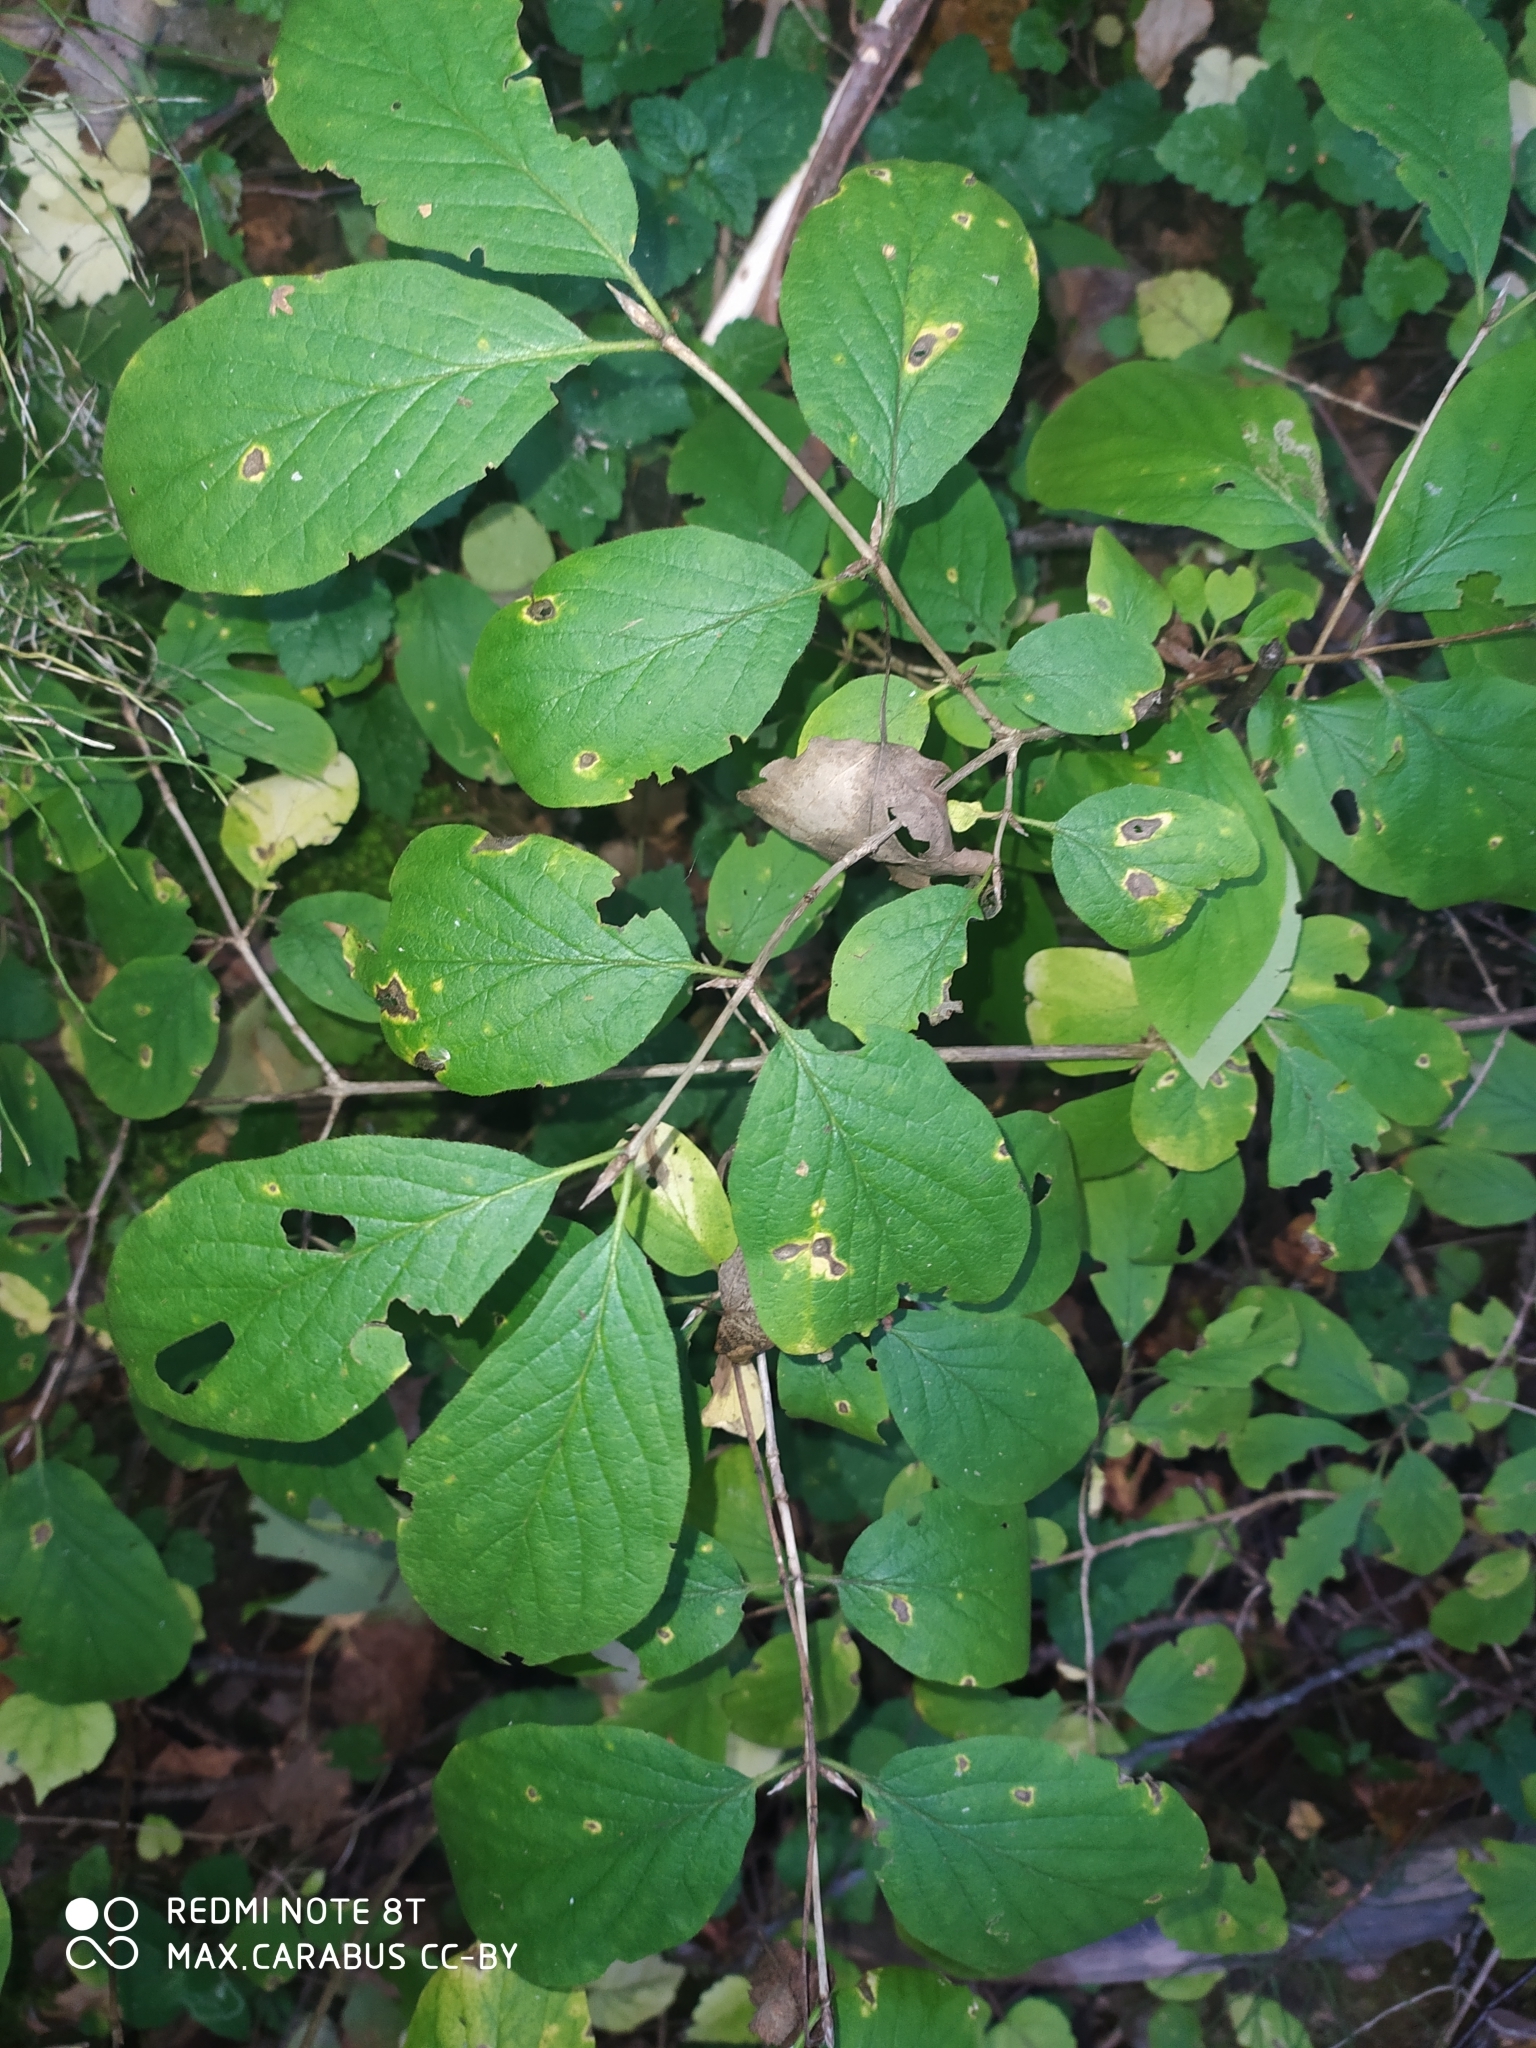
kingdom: Plantae
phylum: Tracheophyta
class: Magnoliopsida
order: Dipsacales
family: Caprifoliaceae
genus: Lonicera
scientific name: Lonicera xylosteum
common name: Fly honeysuckle
